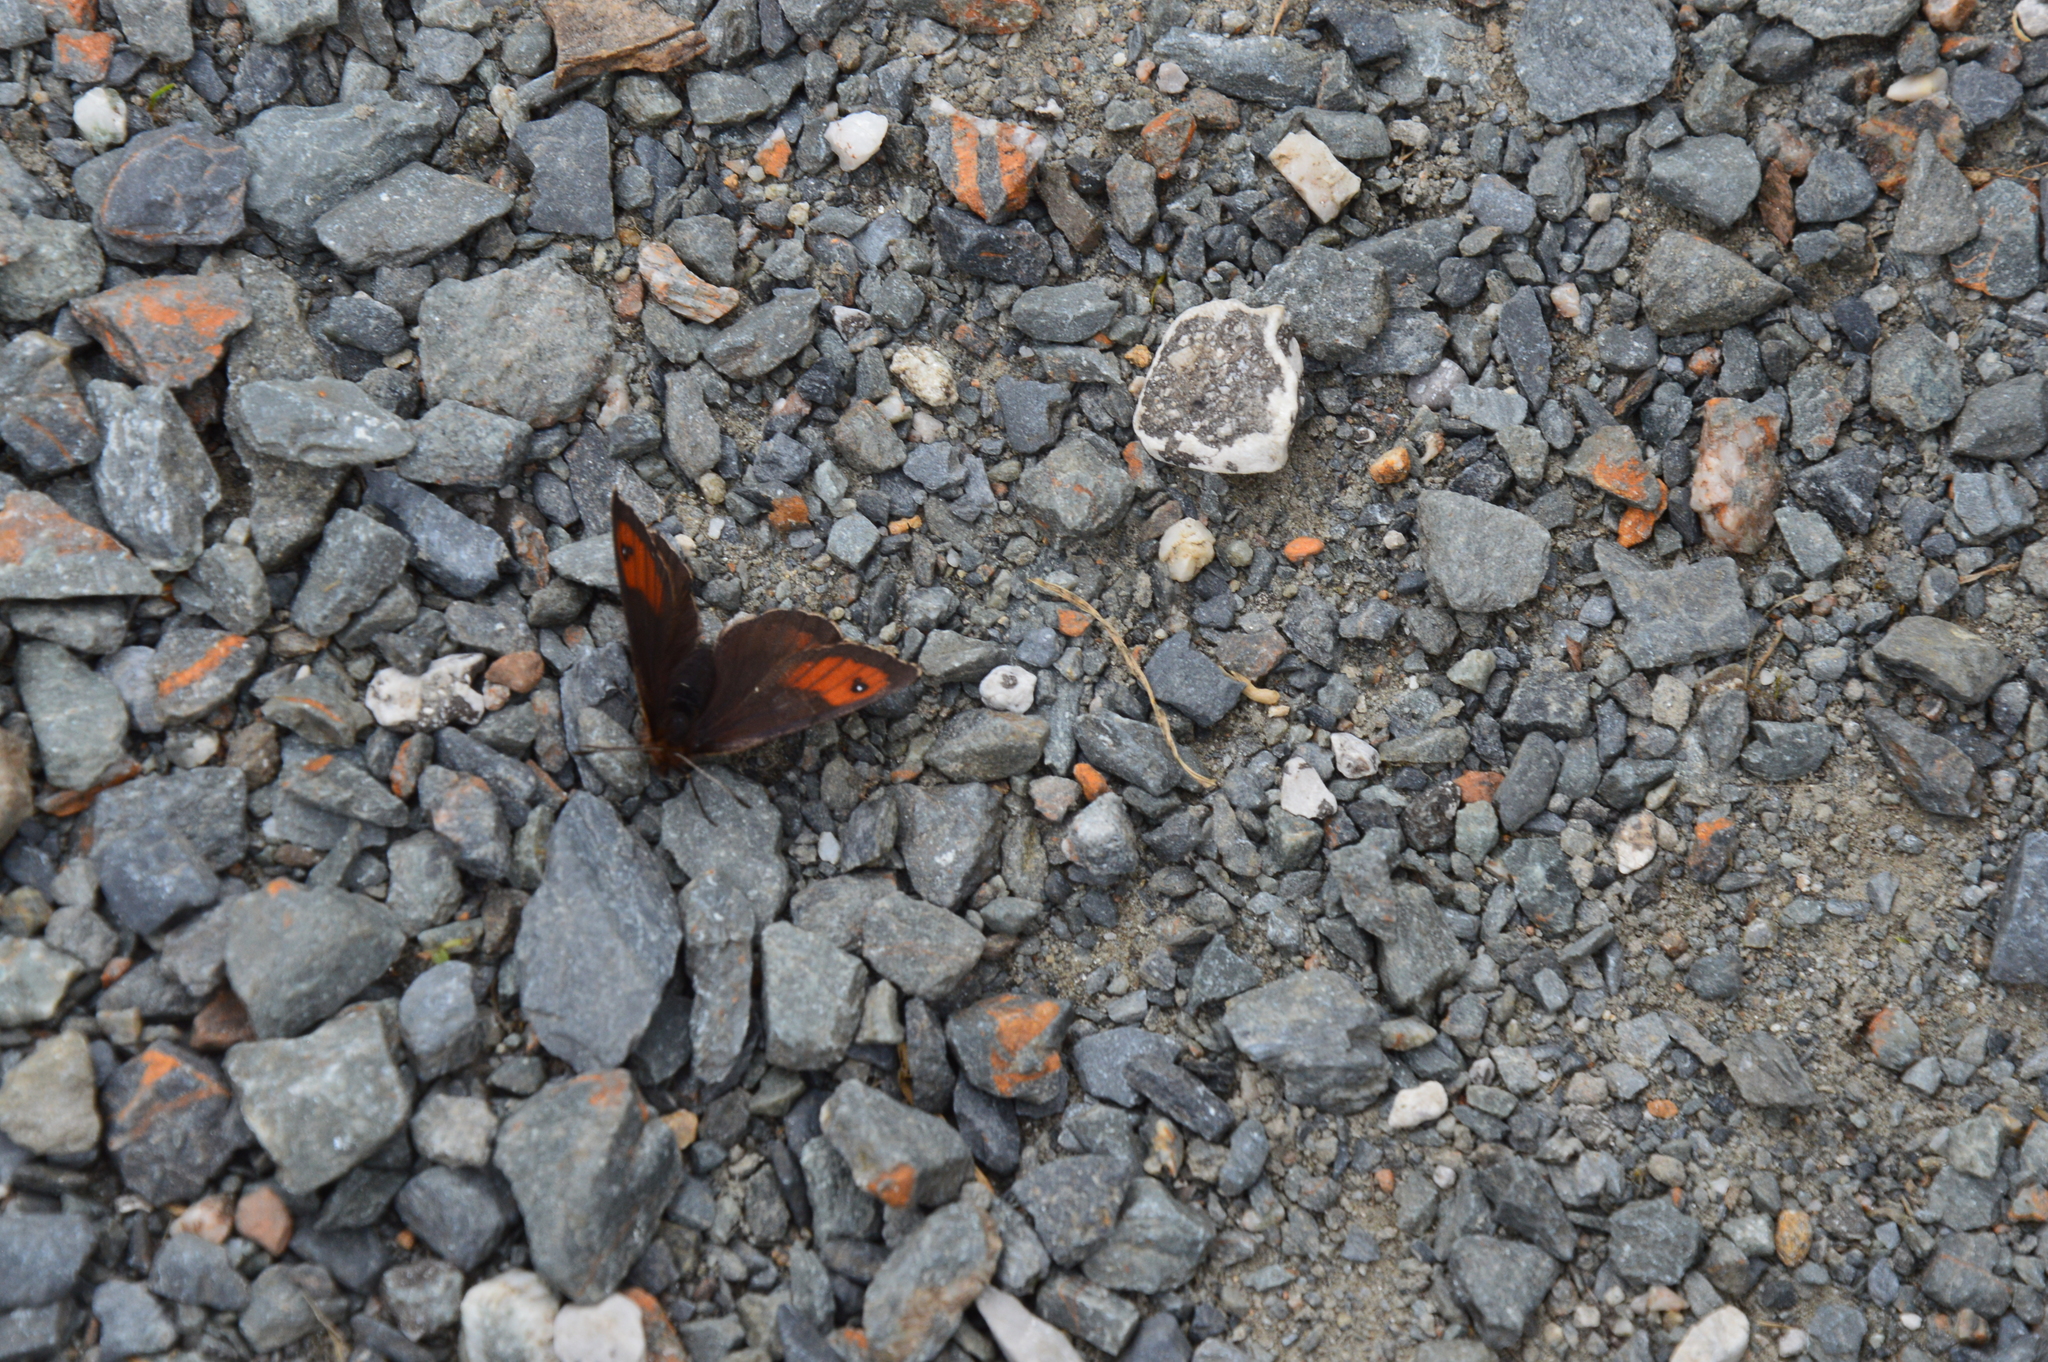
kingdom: Animalia
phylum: Arthropoda
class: Insecta
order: Lepidoptera
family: Nymphalidae
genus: Erebia
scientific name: Erebia pronoe
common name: Water ringlet
